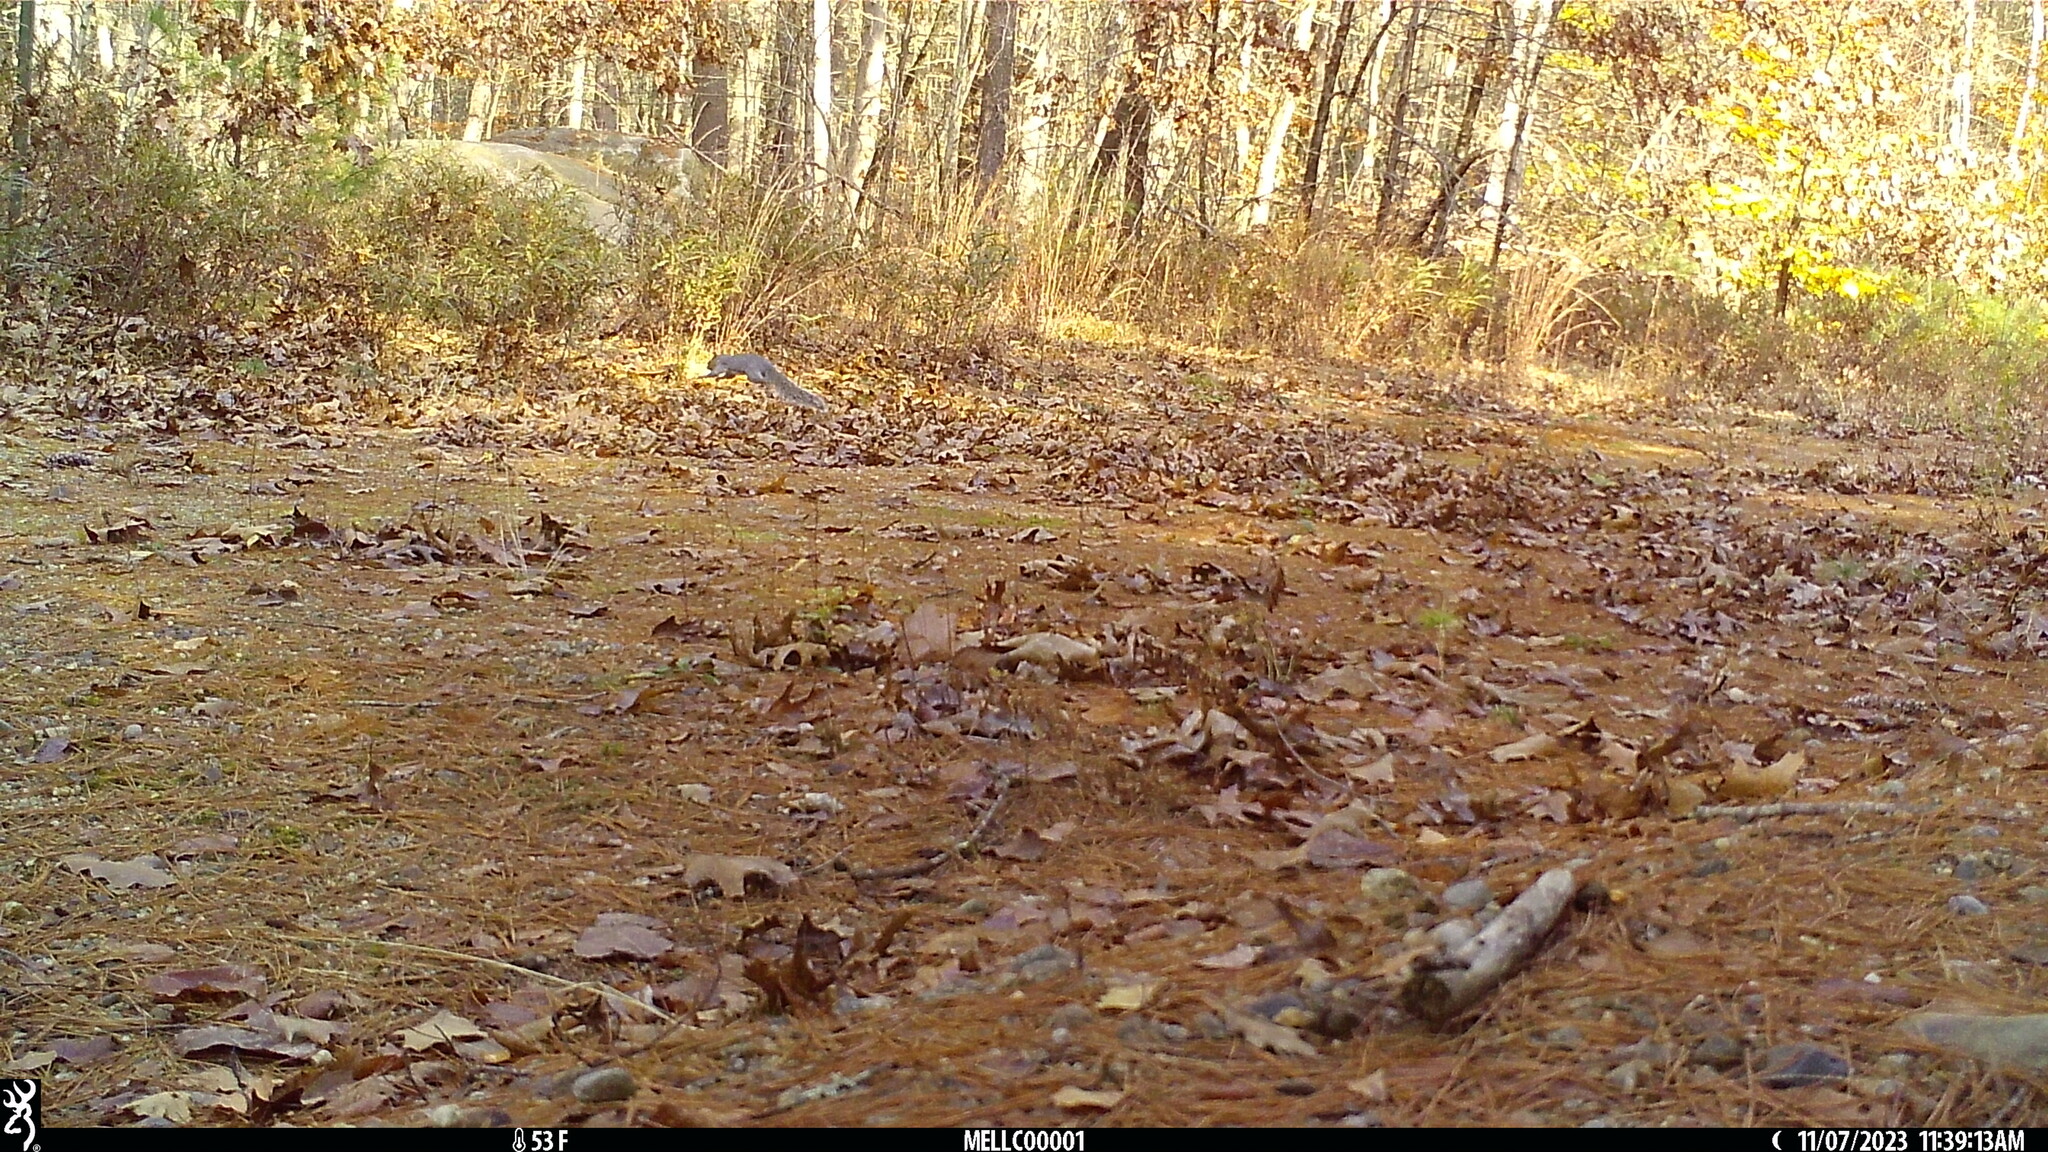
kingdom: Animalia
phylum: Chordata
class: Mammalia
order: Rodentia
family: Sciuridae
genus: Sciurus
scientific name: Sciurus carolinensis
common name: Eastern gray squirrel
